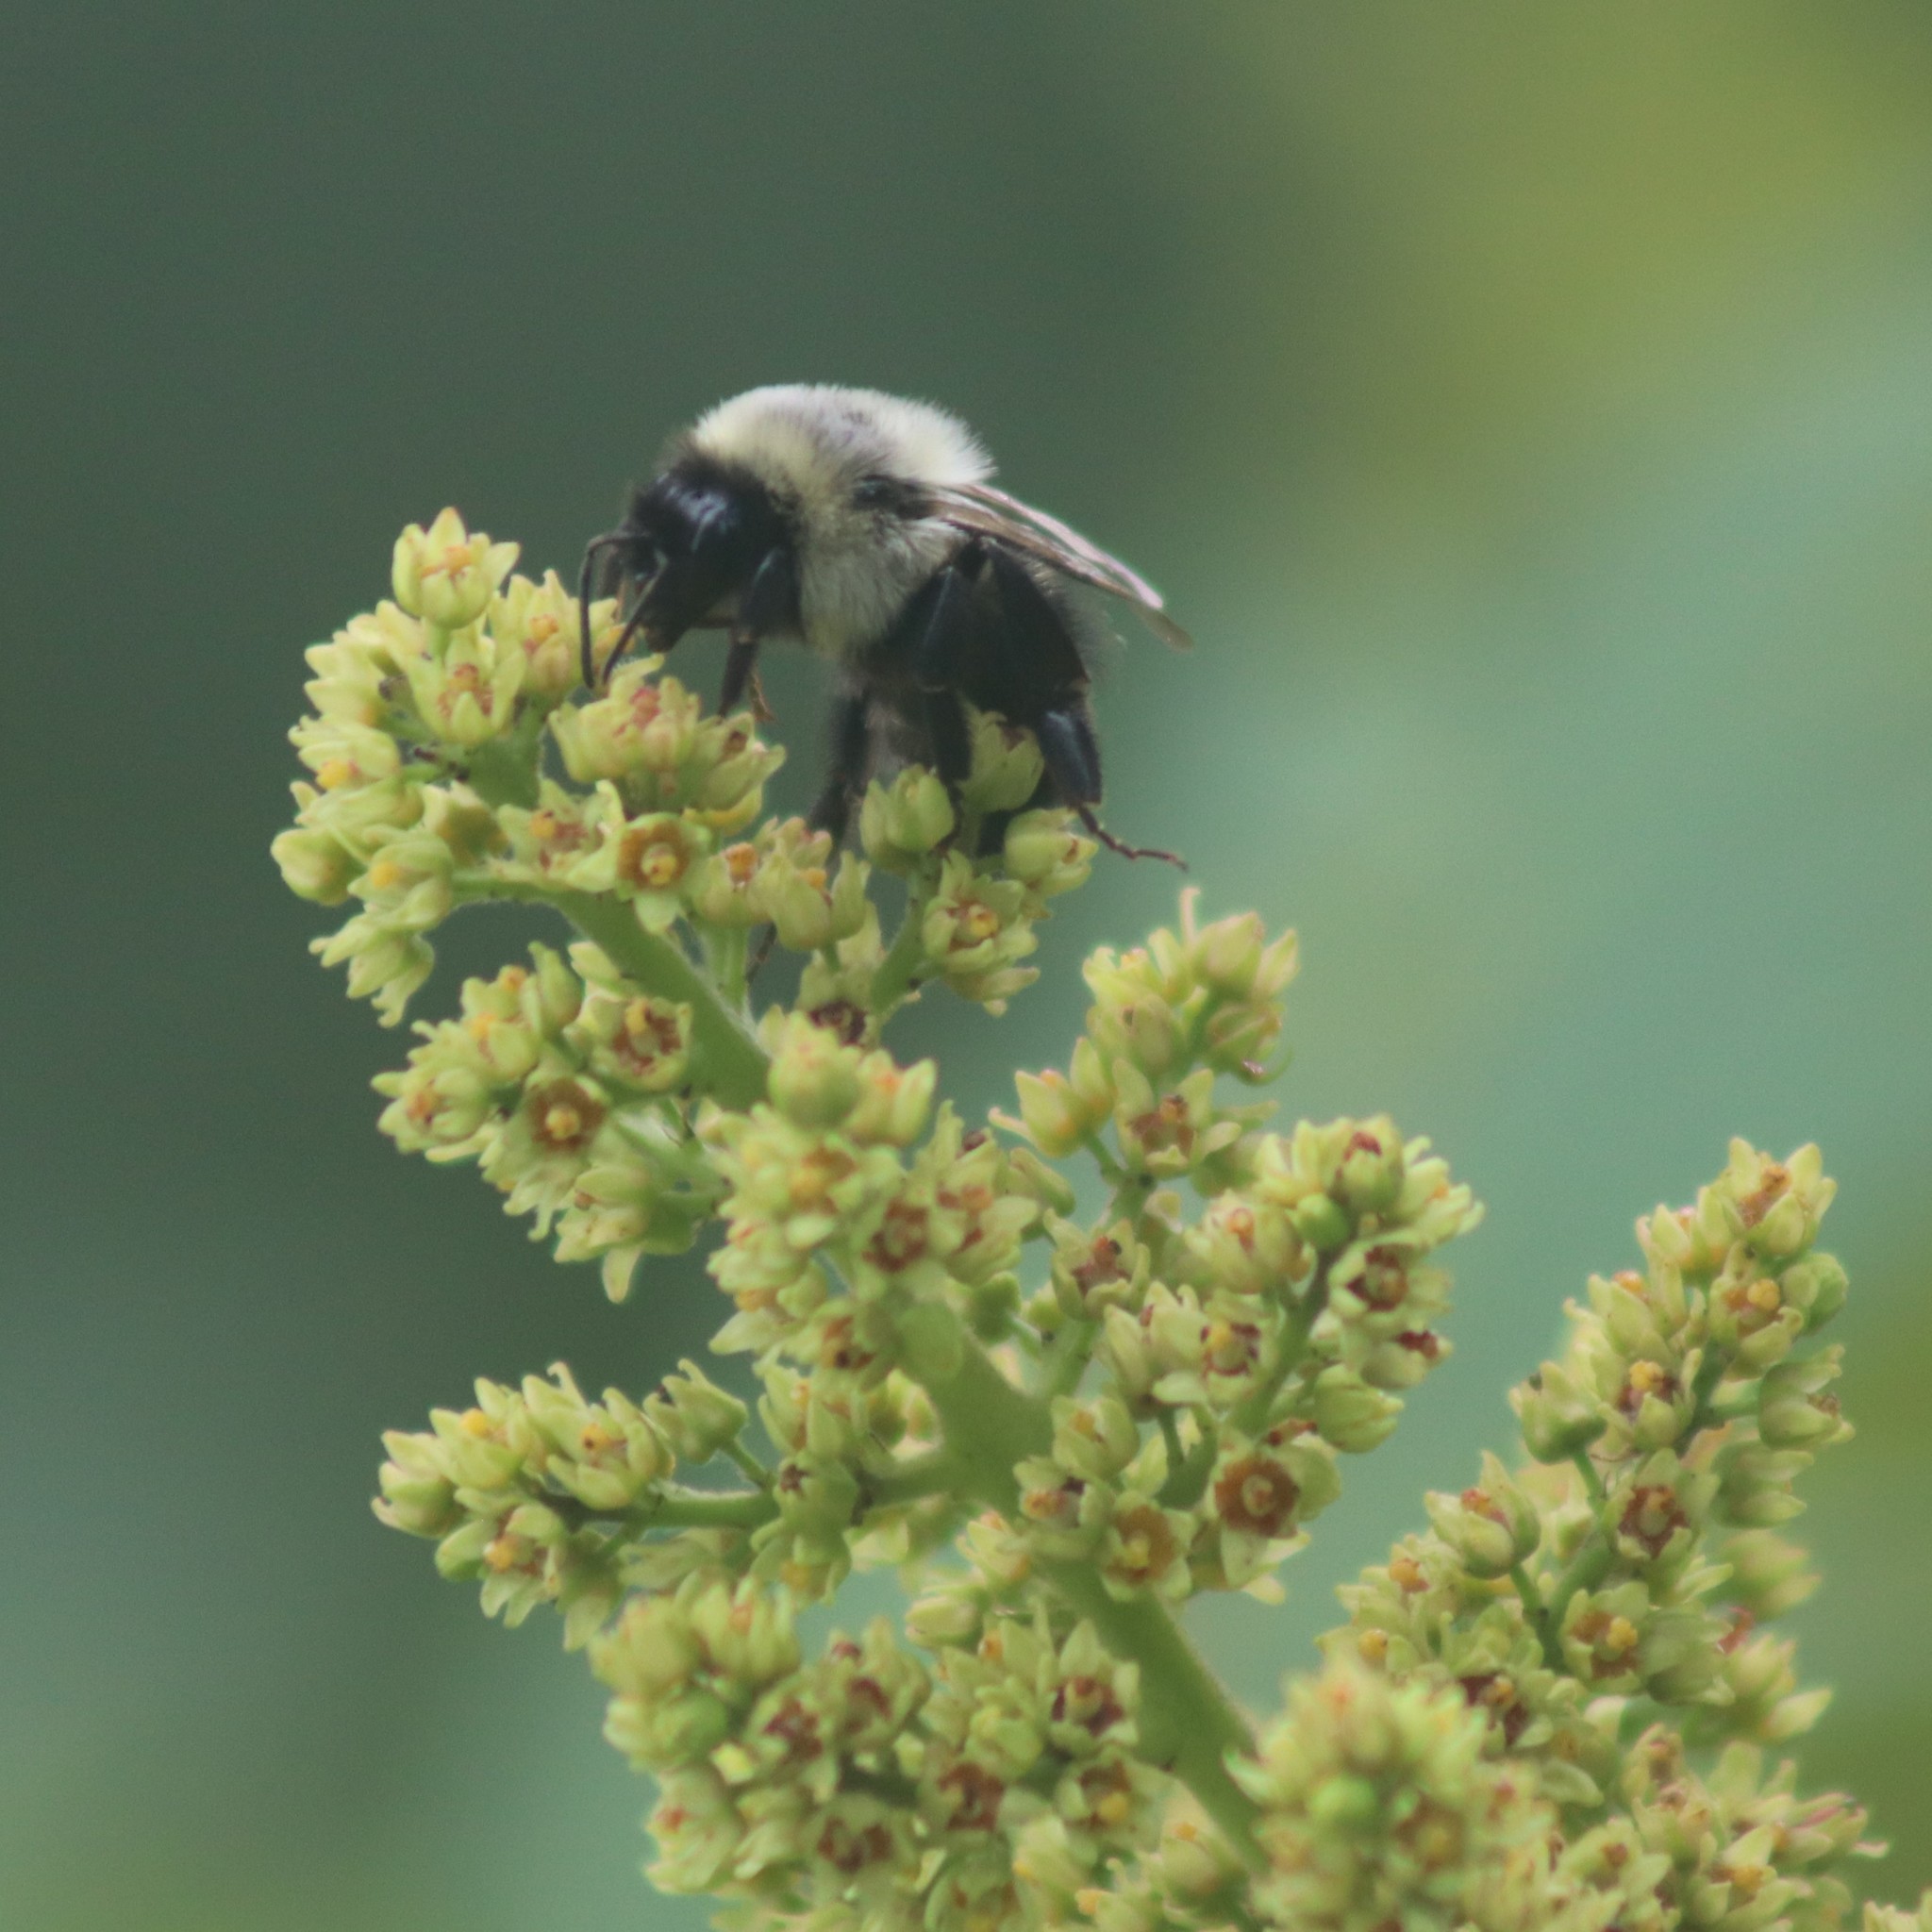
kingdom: Animalia
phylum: Arthropoda
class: Insecta
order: Hymenoptera
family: Apidae
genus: Bombus
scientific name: Bombus impatiens
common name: Common eastern bumble bee
